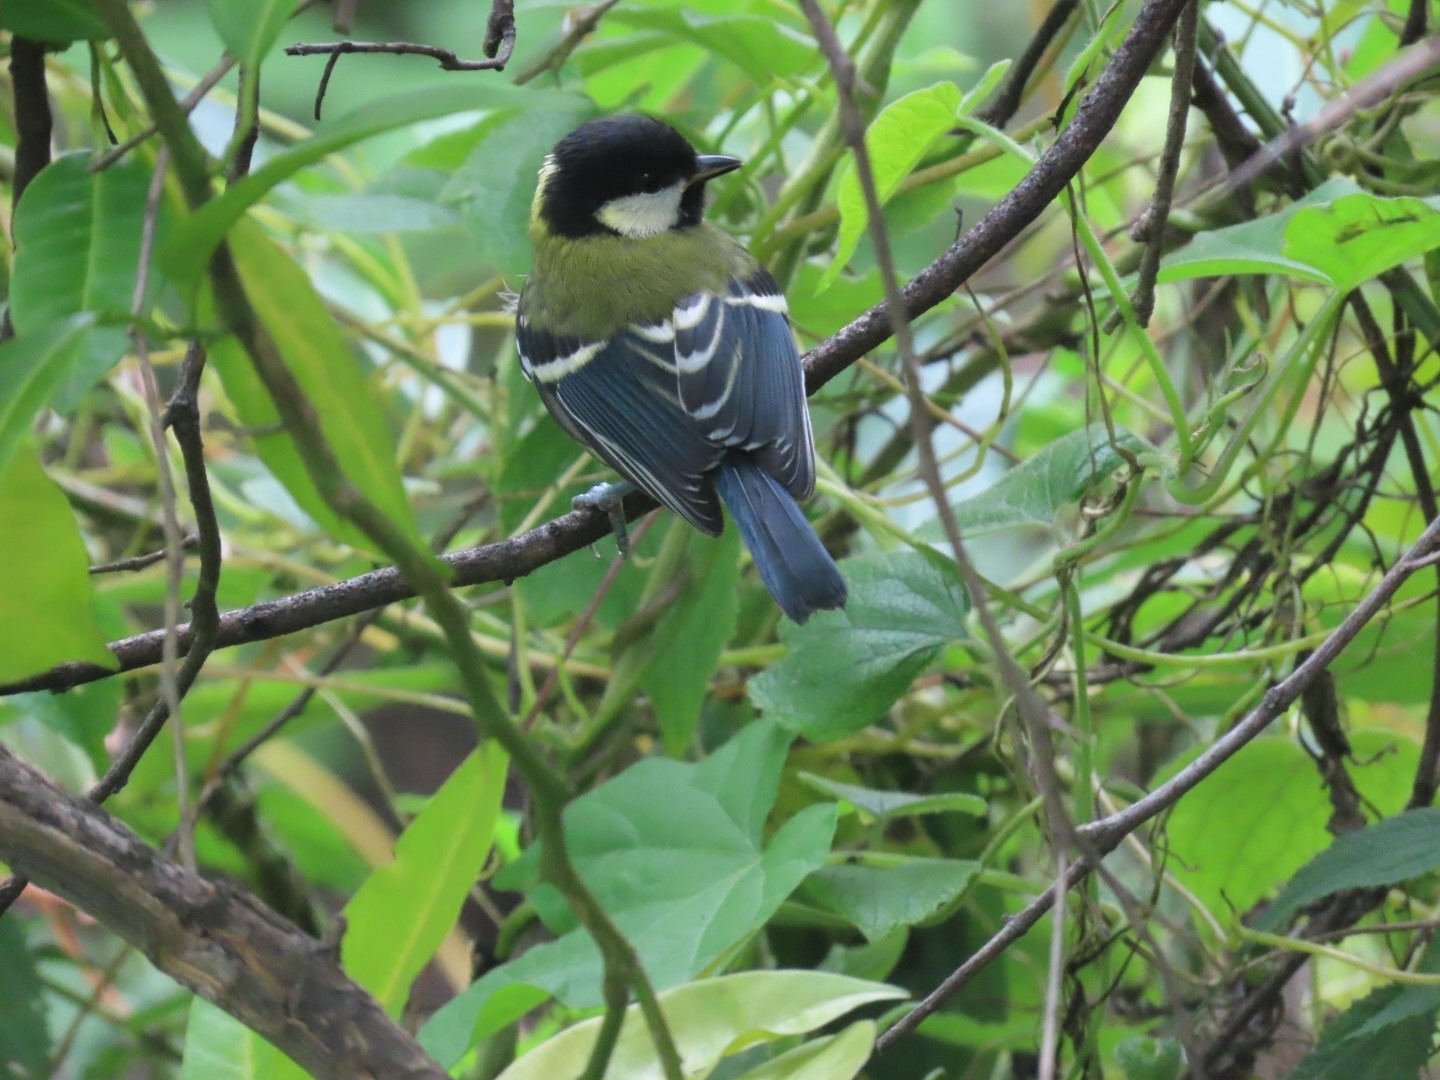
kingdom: Animalia
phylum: Chordata
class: Aves
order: Passeriformes
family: Paridae
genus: Parus
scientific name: Parus monticolus
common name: Green-backed tit
